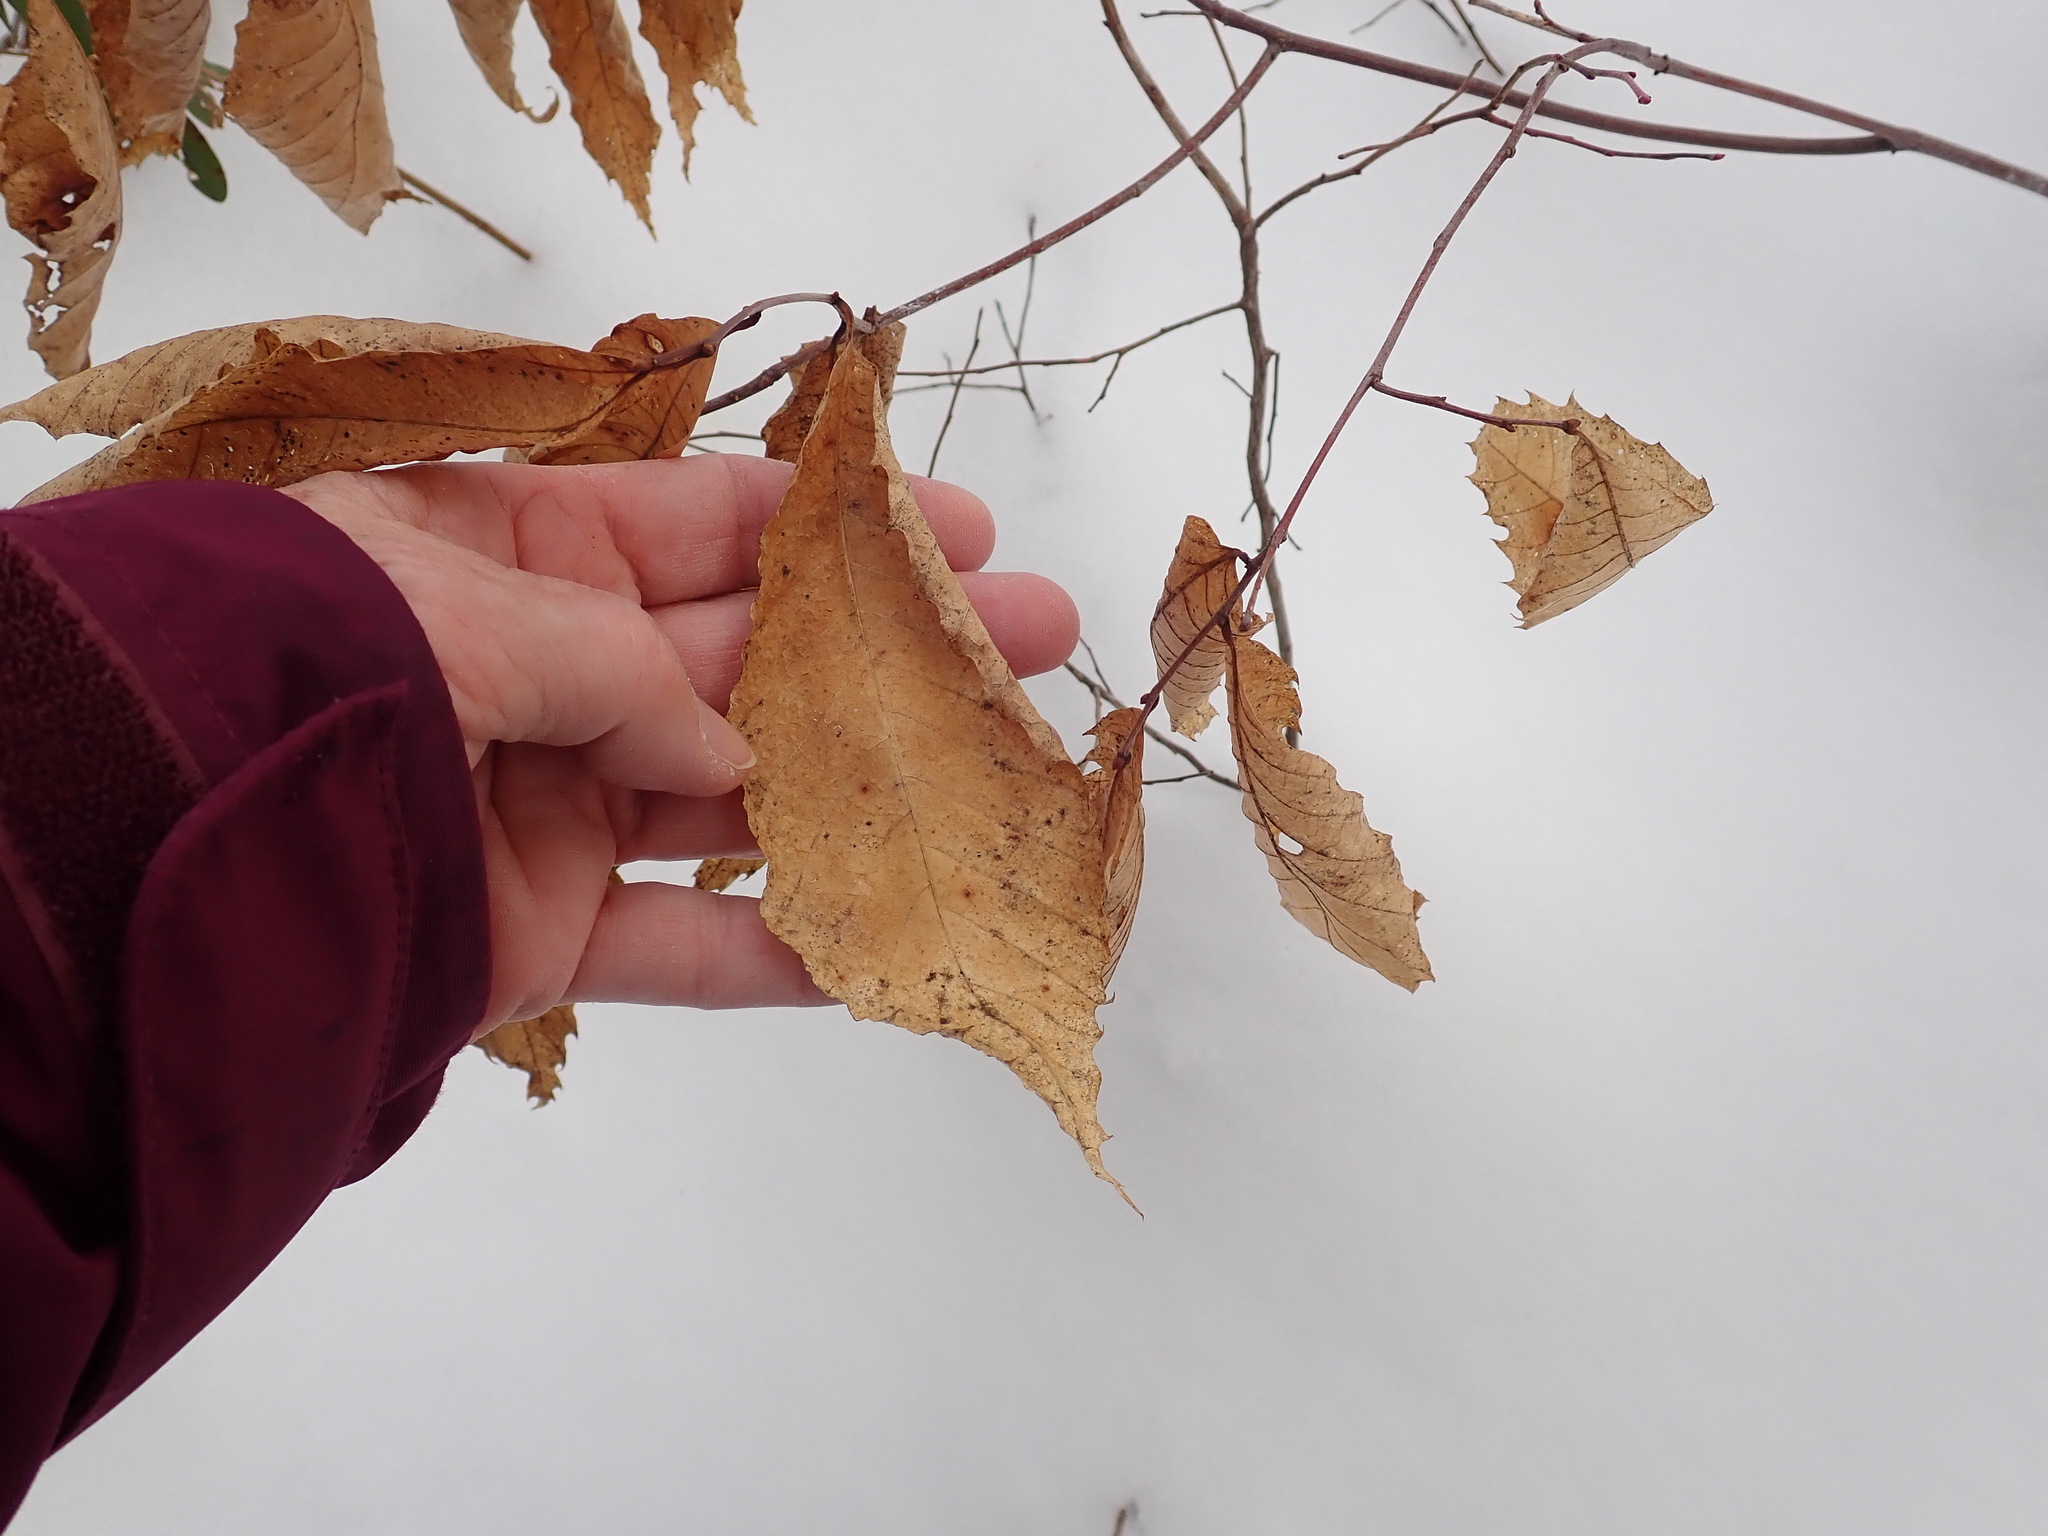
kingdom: Plantae
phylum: Tracheophyta
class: Magnoliopsida
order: Fagales
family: Fagaceae
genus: Castanea
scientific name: Castanea dentata
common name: American chestnut
